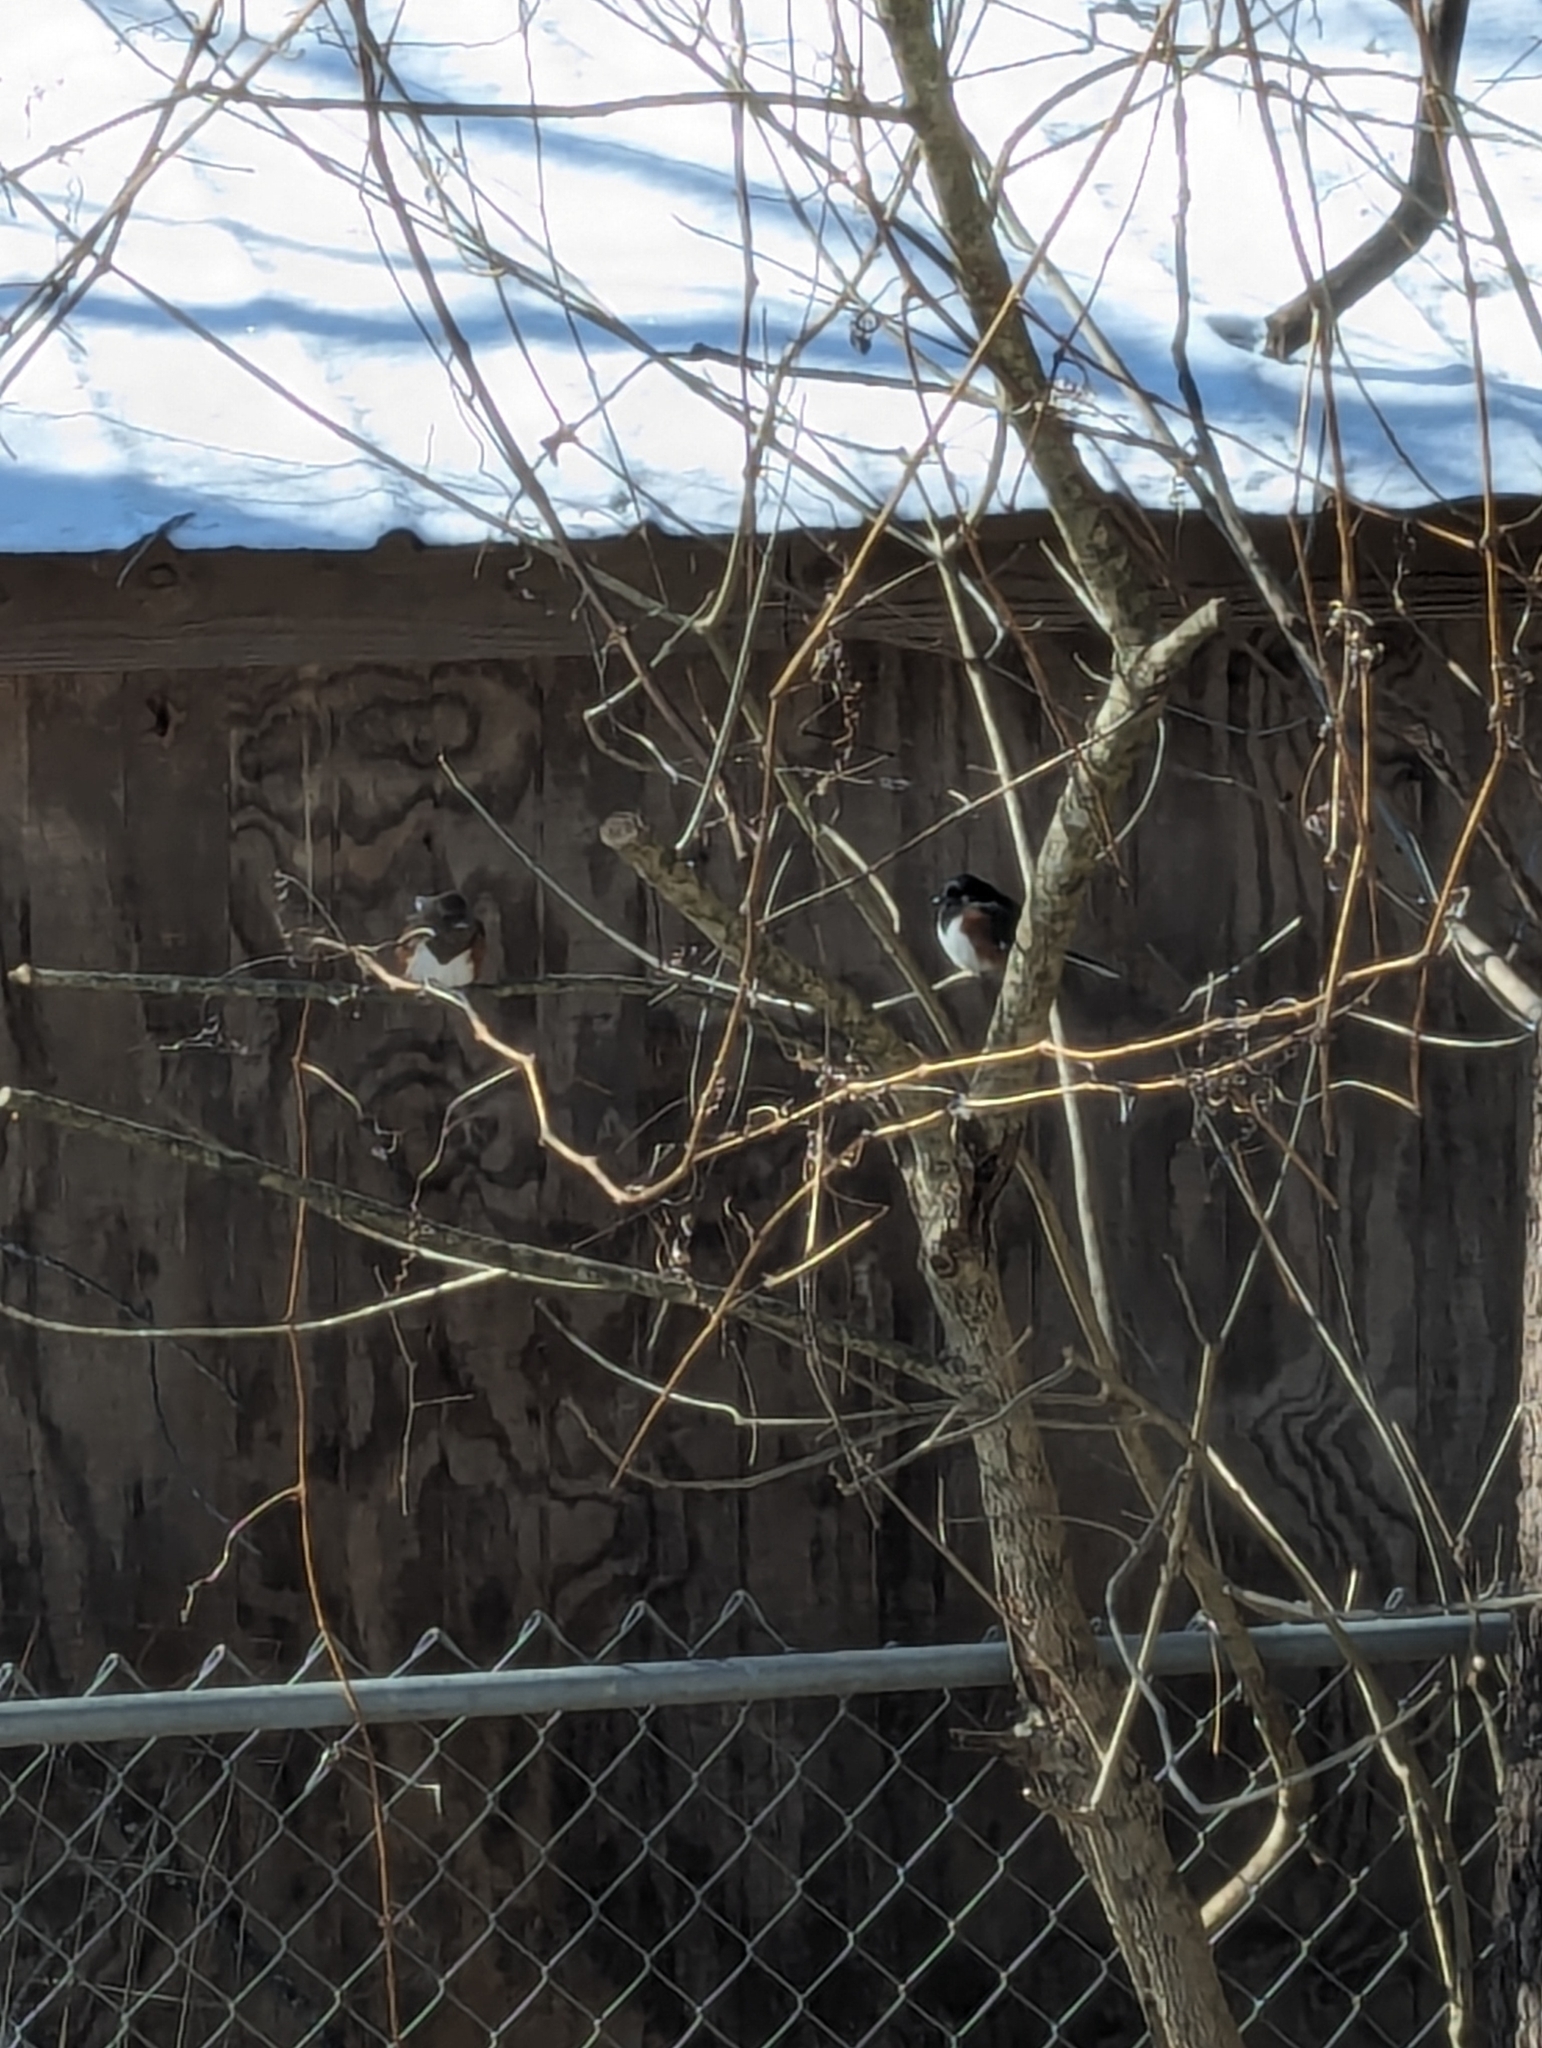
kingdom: Animalia
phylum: Chordata
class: Aves
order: Passeriformes
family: Passerellidae
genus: Pipilo
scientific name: Pipilo erythrophthalmus
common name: Eastern towhee
